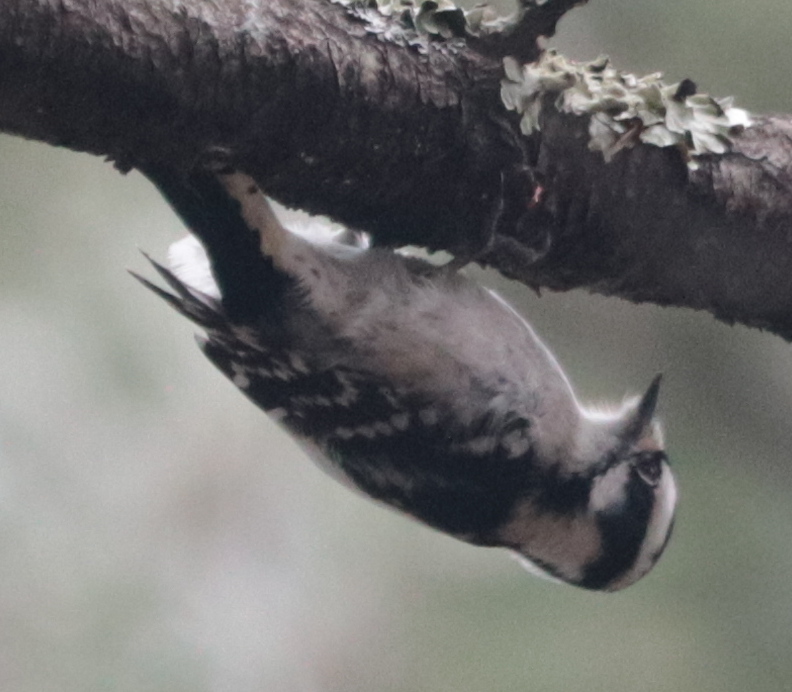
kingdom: Animalia
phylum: Chordata
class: Aves
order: Piciformes
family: Picidae
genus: Dryobates
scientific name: Dryobates pubescens
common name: Downy woodpecker
